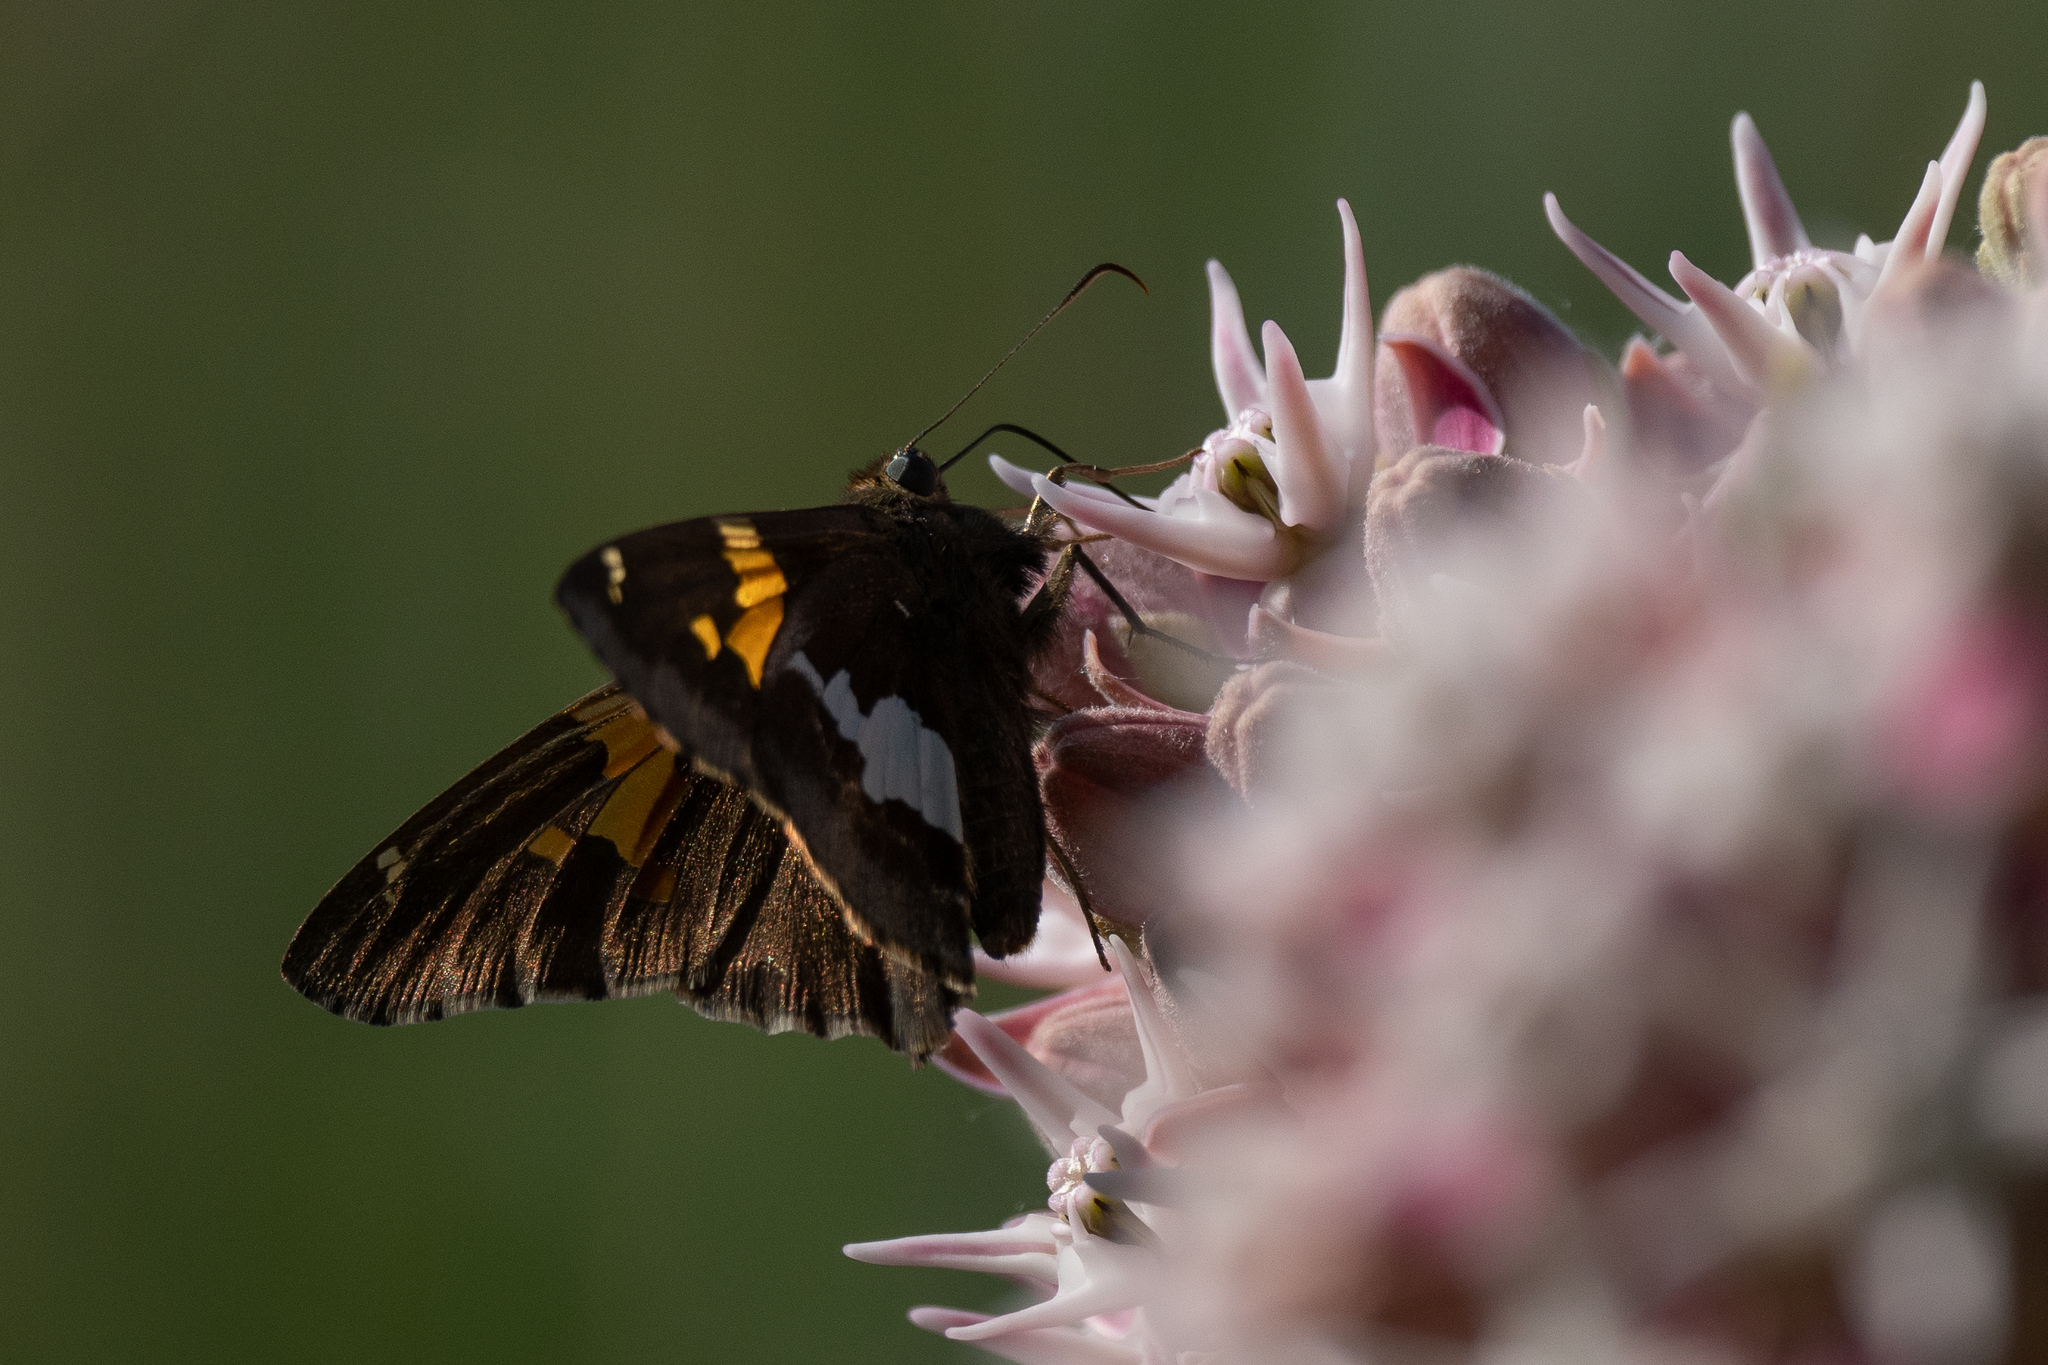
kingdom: Animalia
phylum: Arthropoda
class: Insecta
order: Lepidoptera
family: Hesperiidae
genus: Epargyreus
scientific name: Epargyreus clarus
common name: Silver-spotted skipper
